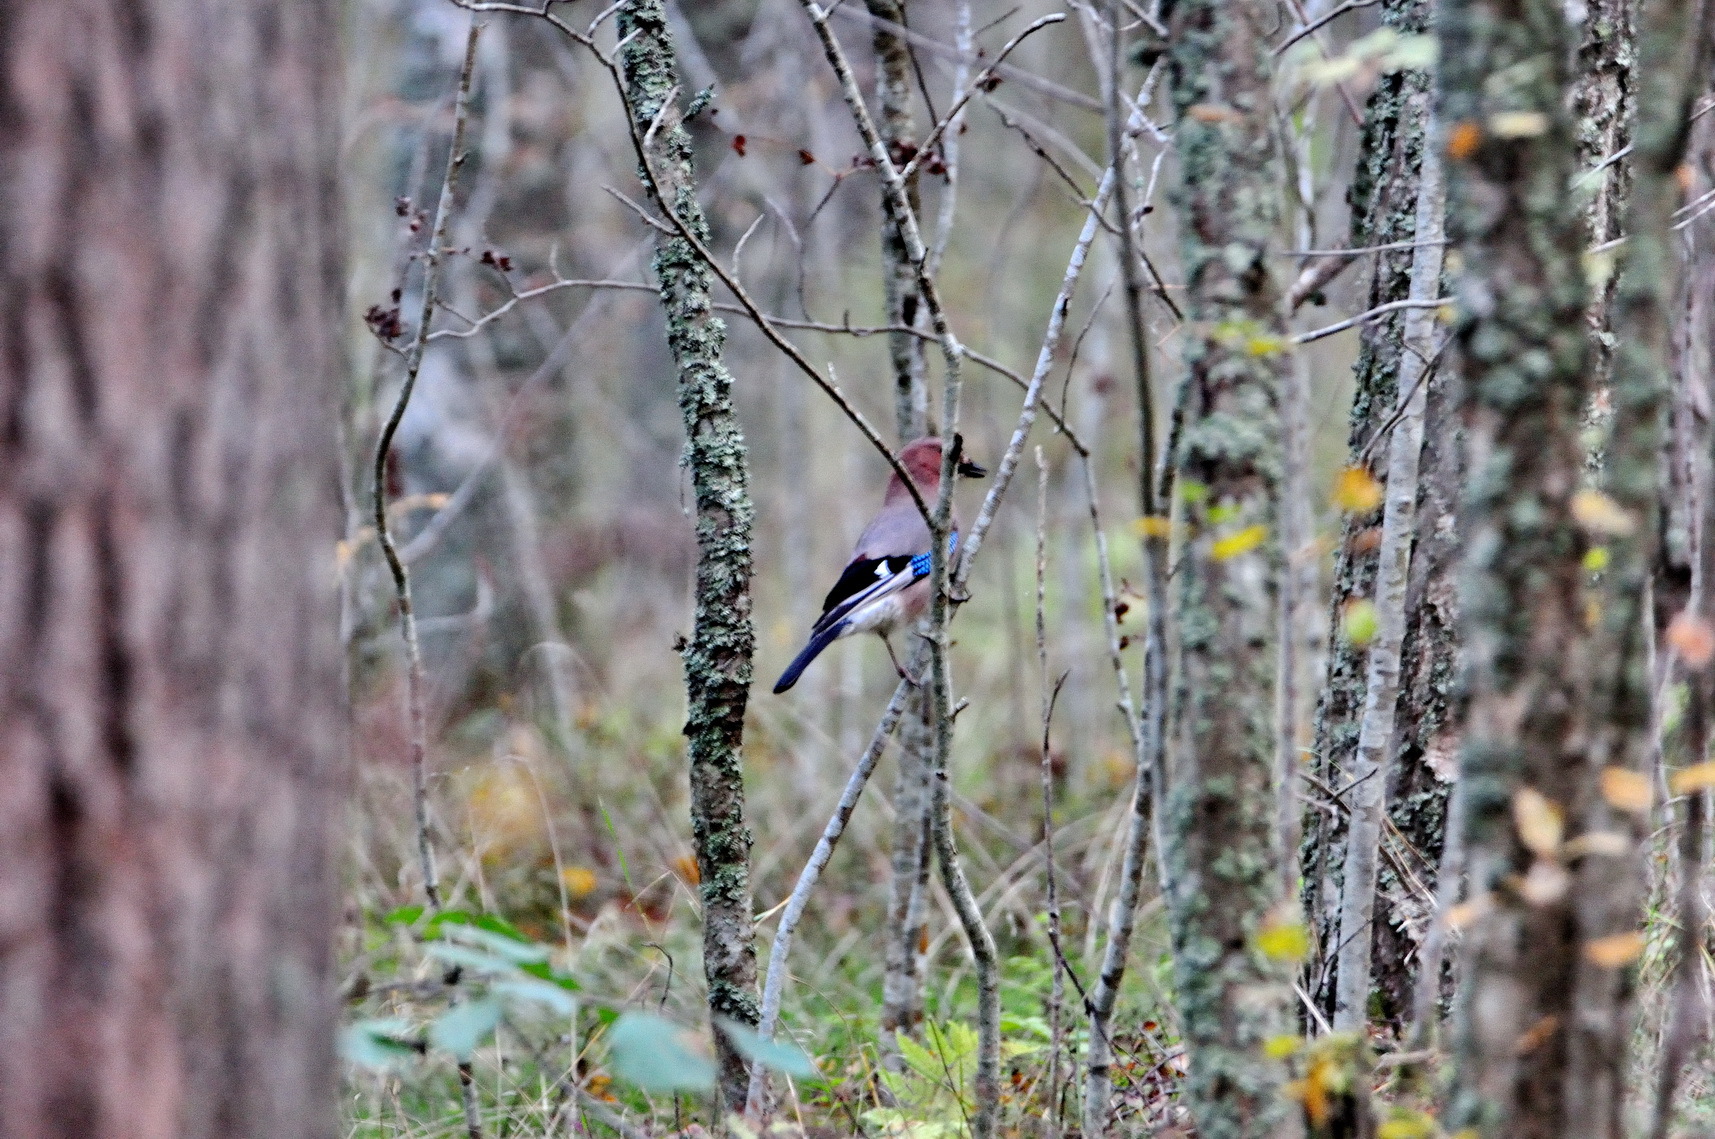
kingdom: Animalia
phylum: Chordata
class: Aves
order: Passeriformes
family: Corvidae
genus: Garrulus
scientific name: Garrulus glandarius
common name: Eurasian jay
